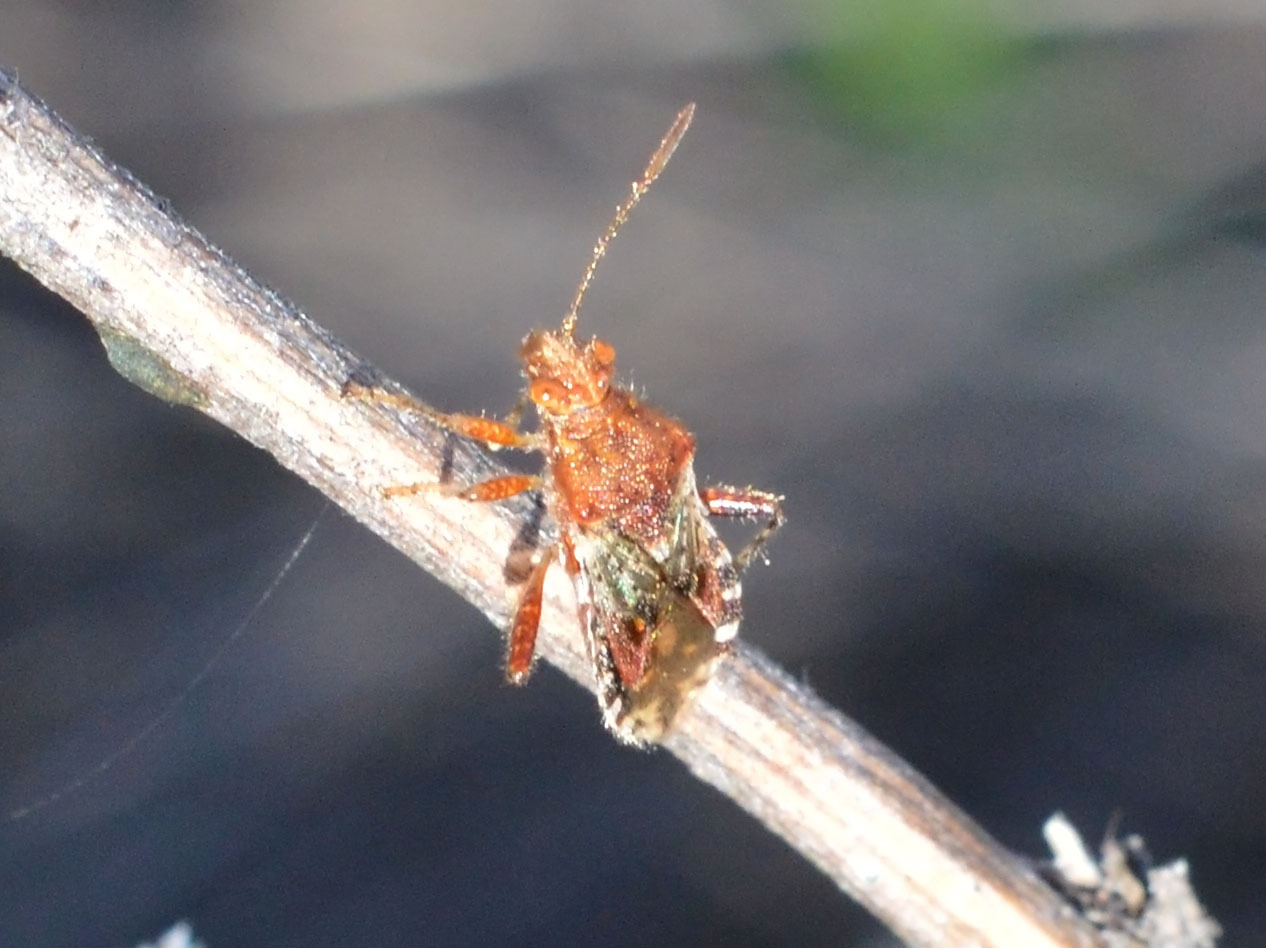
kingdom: Animalia
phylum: Arthropoda
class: Insecta
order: Hemiptera
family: Rhopalidae
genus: Rhopalus
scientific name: Rhopalus subrufus
